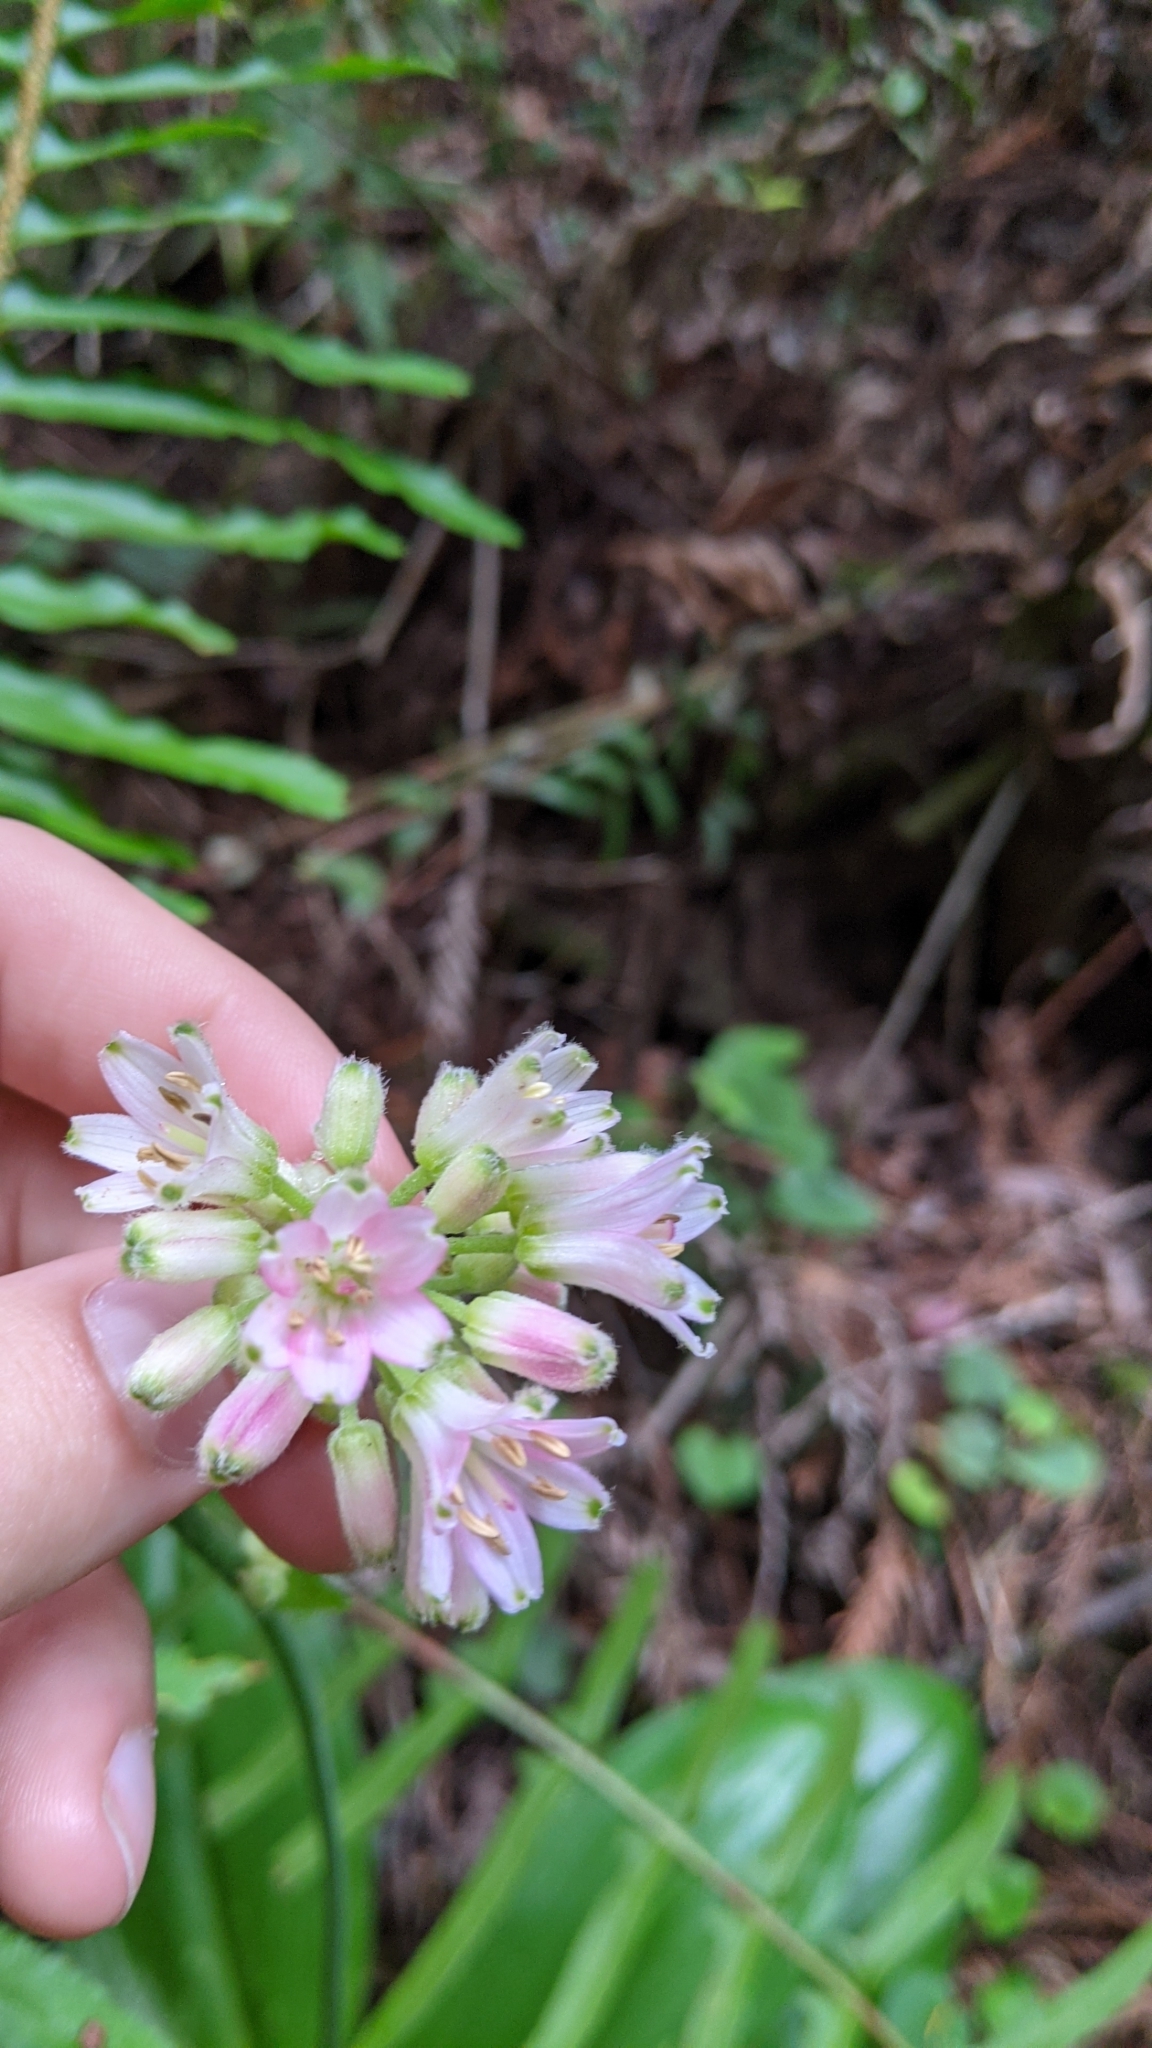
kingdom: Plantae
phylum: Tracheophyta
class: Liliopsida
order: Liliales
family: Liliaceae
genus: Clintonia
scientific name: Clintonia andrewsiana
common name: Red clintonia
